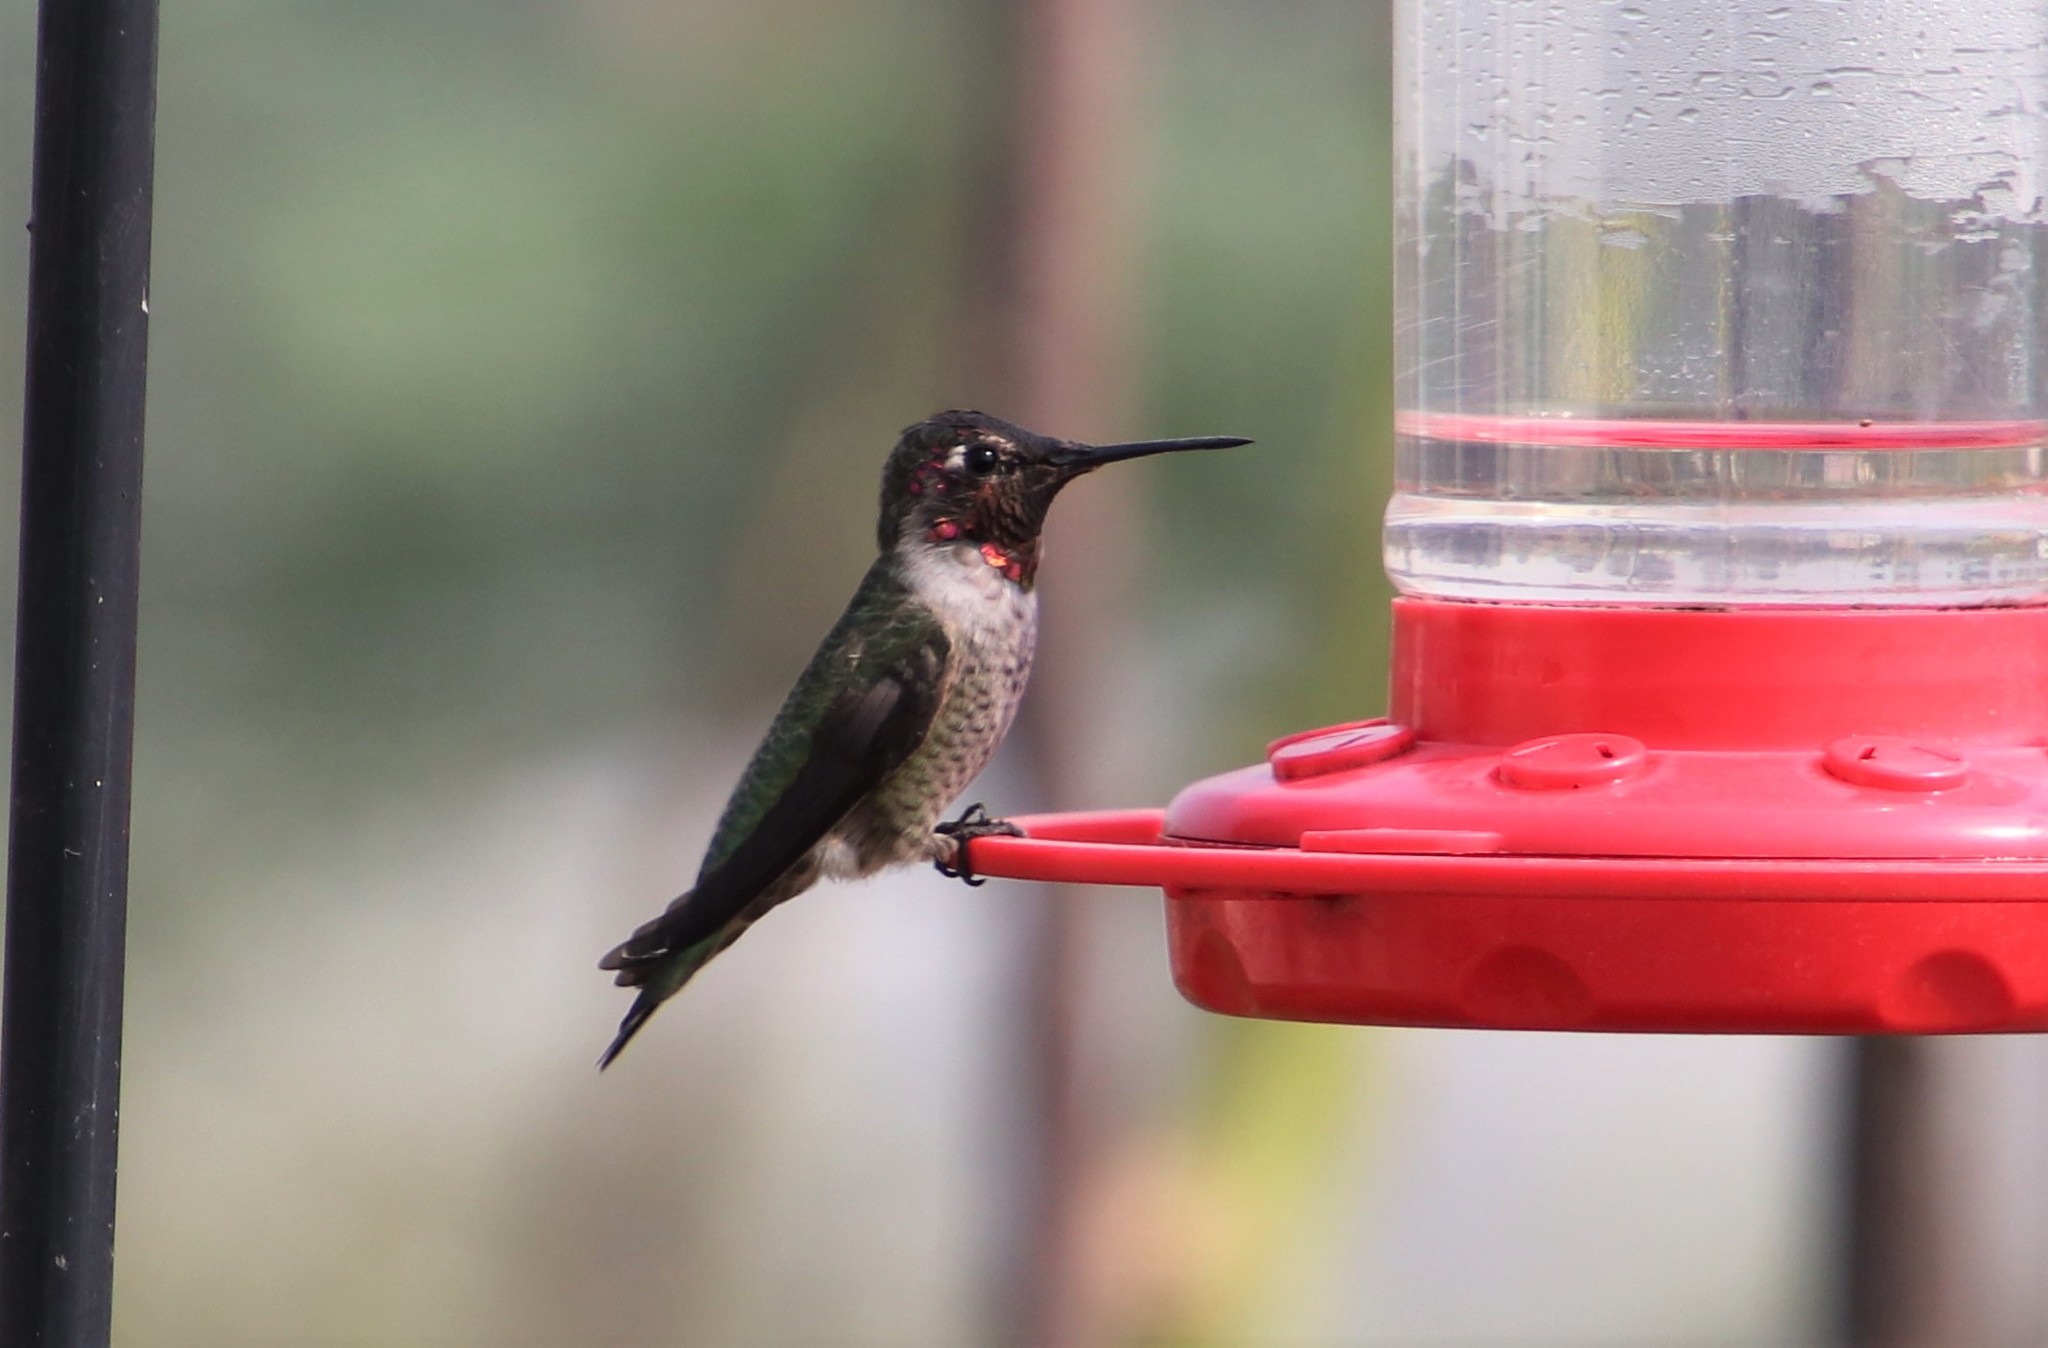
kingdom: Animalia
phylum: Chordata
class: Aves
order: Apodiformes
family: Trochilidae
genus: Calypte
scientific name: Calypte anna
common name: Anna's hummingbird
